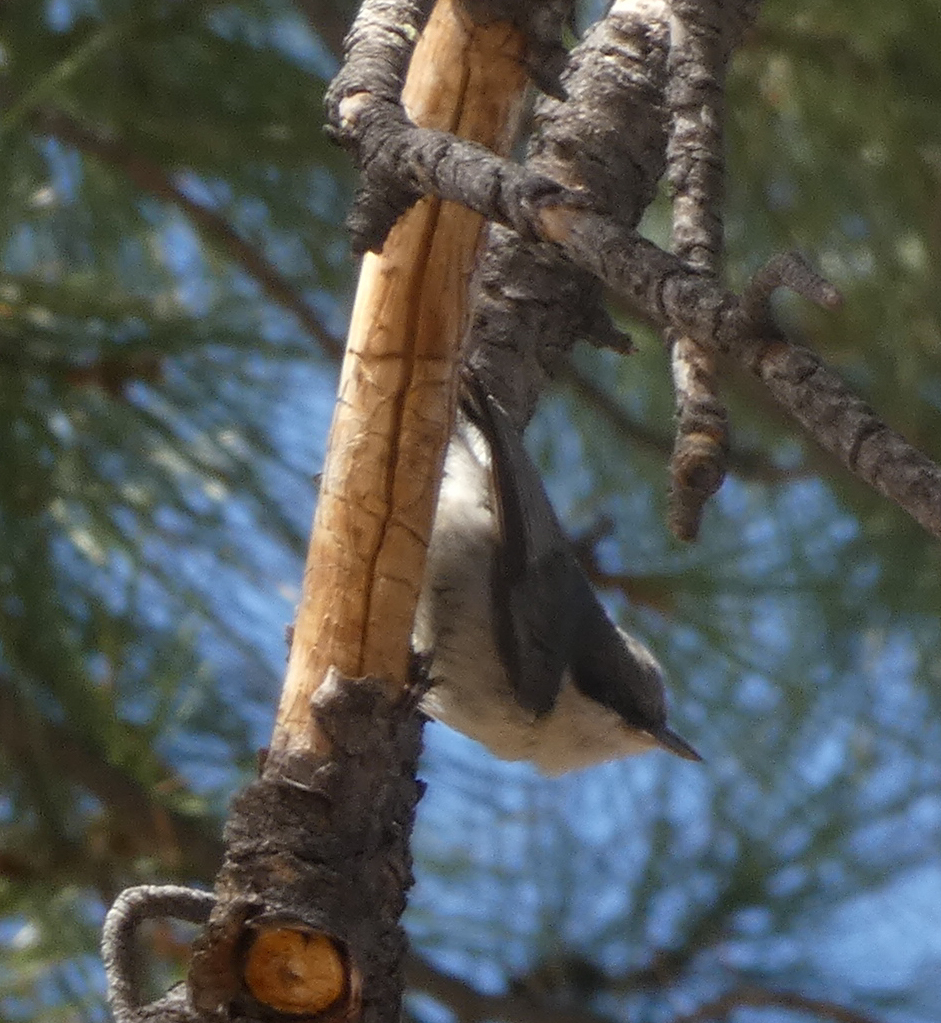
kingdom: Animalia
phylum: Chordata
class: Aves
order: Passeriformes
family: Sittidae
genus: Sitta
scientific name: Sitta pygmaea
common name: Pygmy nuthatch
